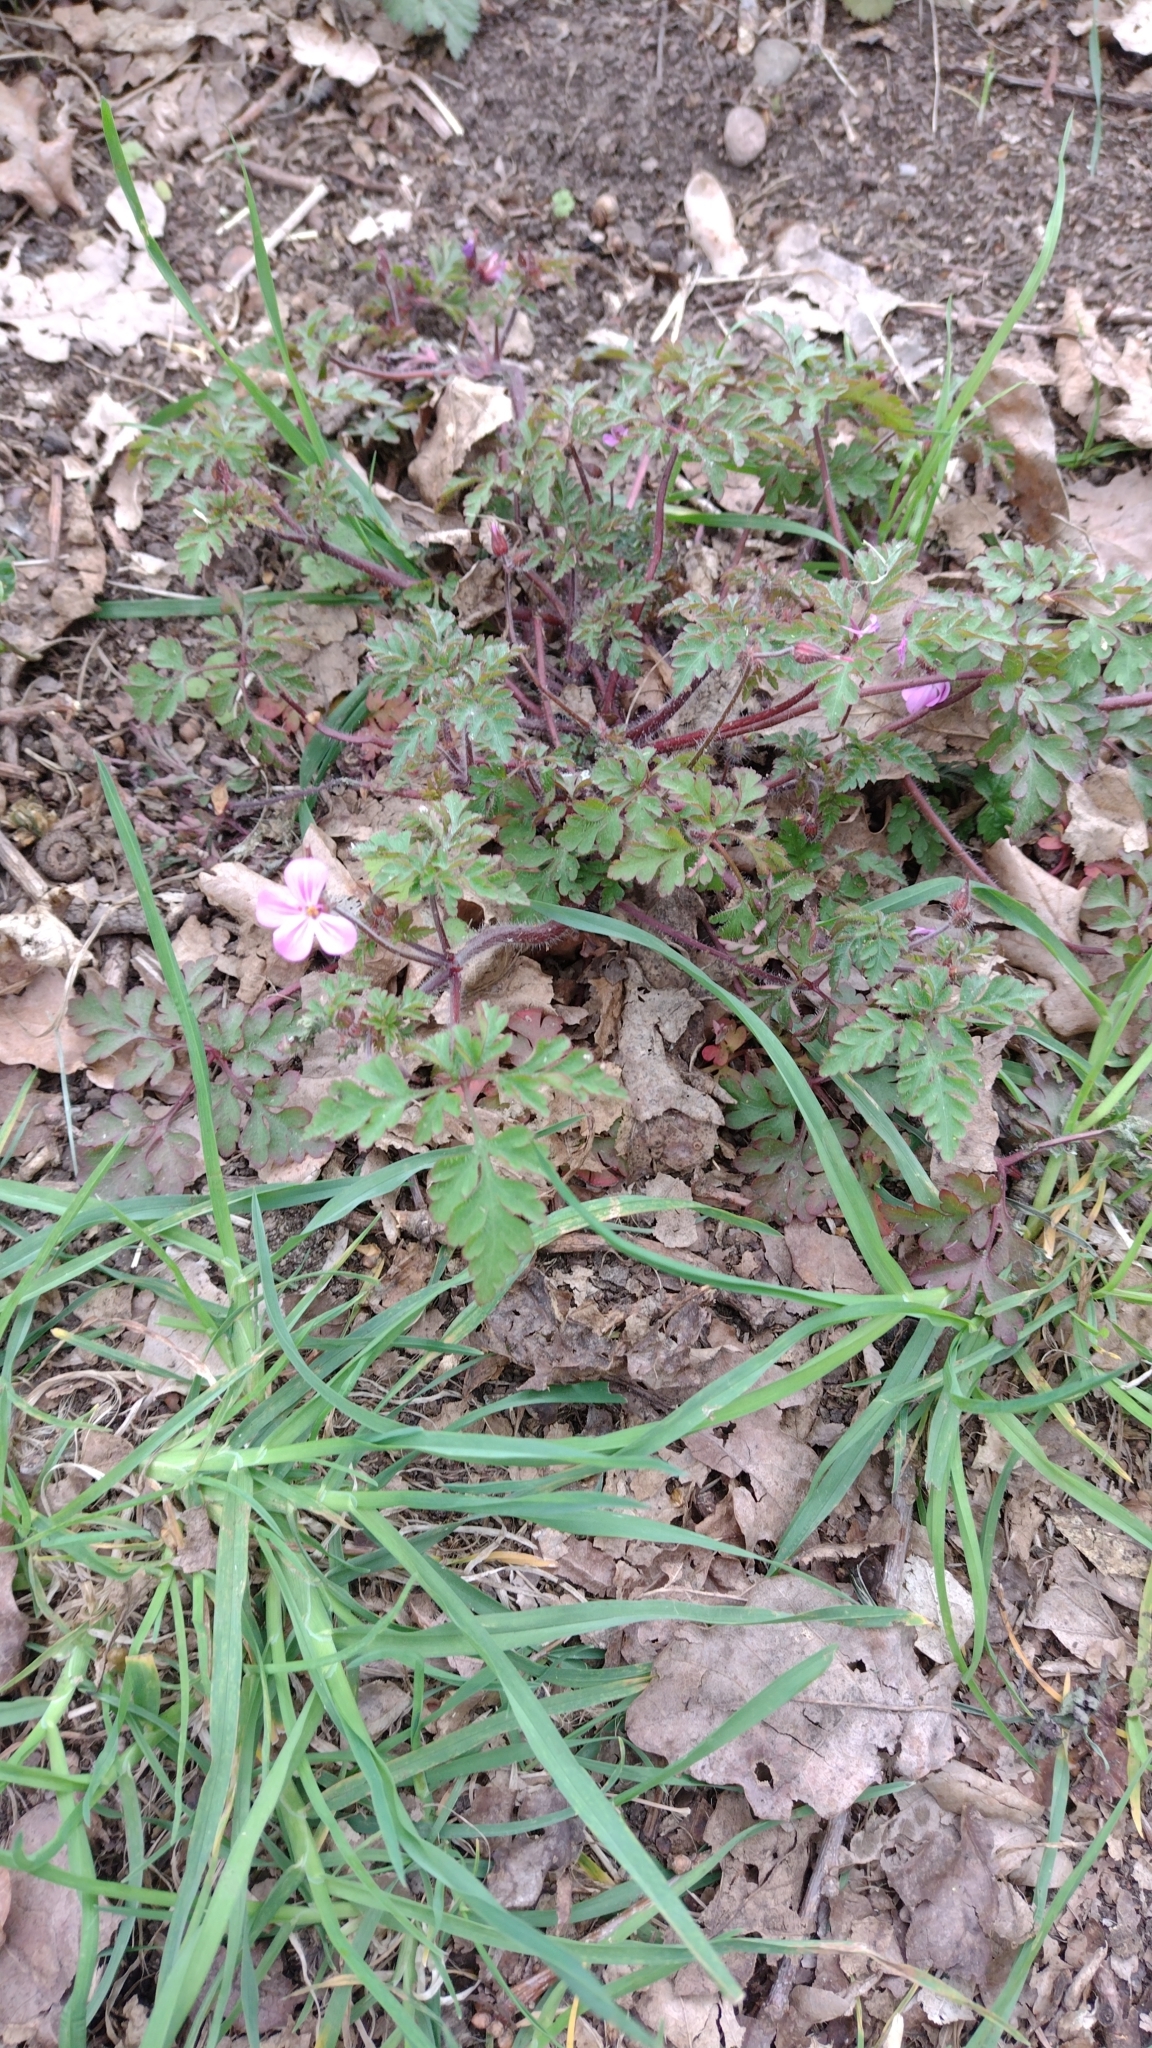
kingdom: Plantae
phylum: Tracheophyta
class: Magnoliopsida
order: Geraniales
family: Geraniaceae
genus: Geranium
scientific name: Geranium robertianum
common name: Herb-robert
